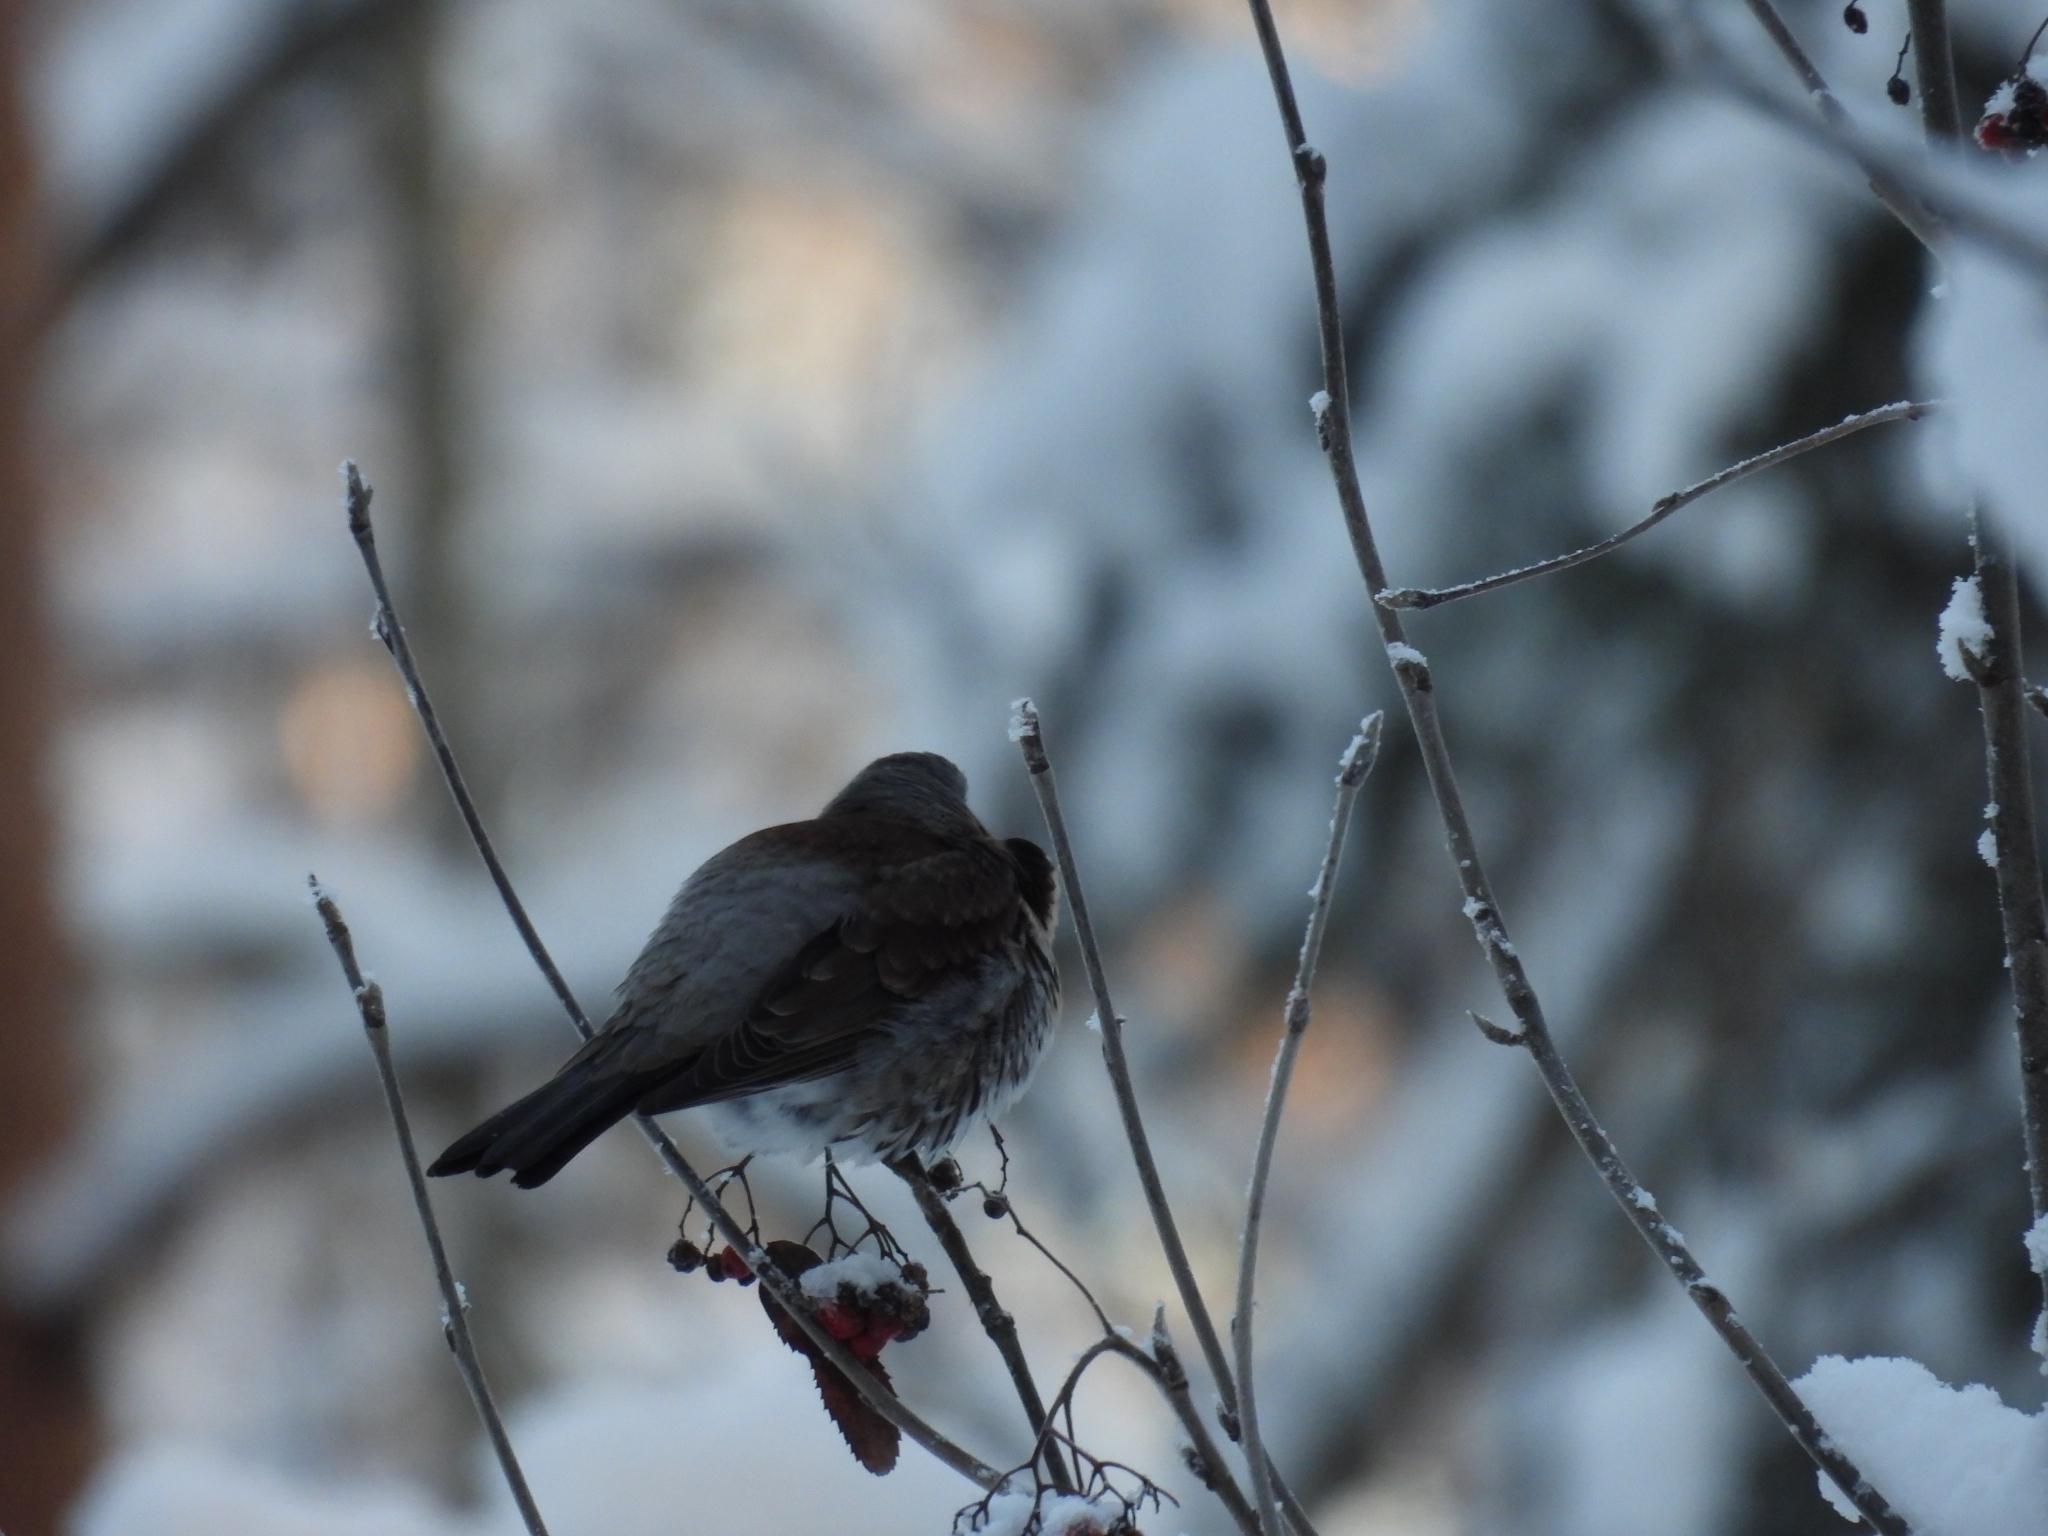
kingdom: Animalia
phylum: Chordata
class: Aves
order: Passeriformes
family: Turdidae
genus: Turdus
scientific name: Turdus pilaris
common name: Fieldfare
